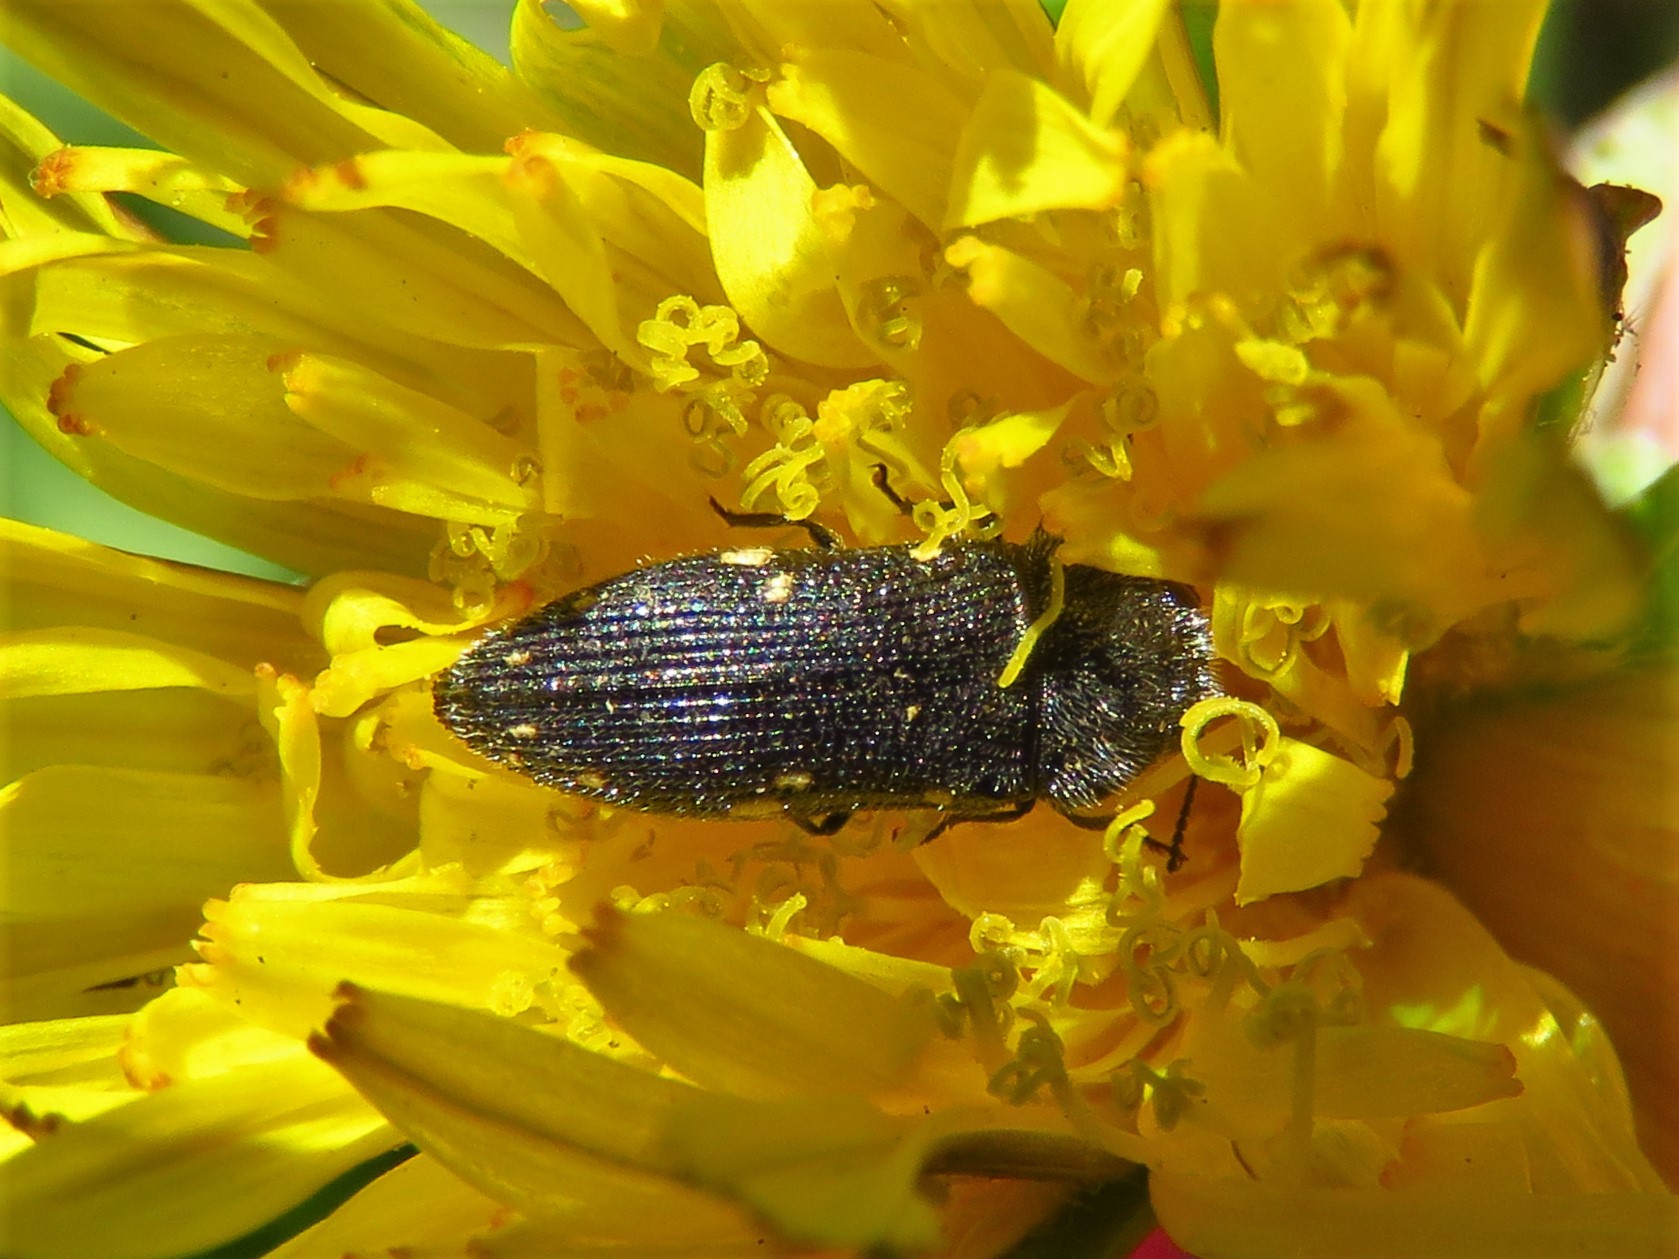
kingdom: Animalia
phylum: Arthropoda
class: Insecta
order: Coleoptera
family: Buprestidae
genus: Acmaeodera
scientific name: Acmaeodera tubulus
